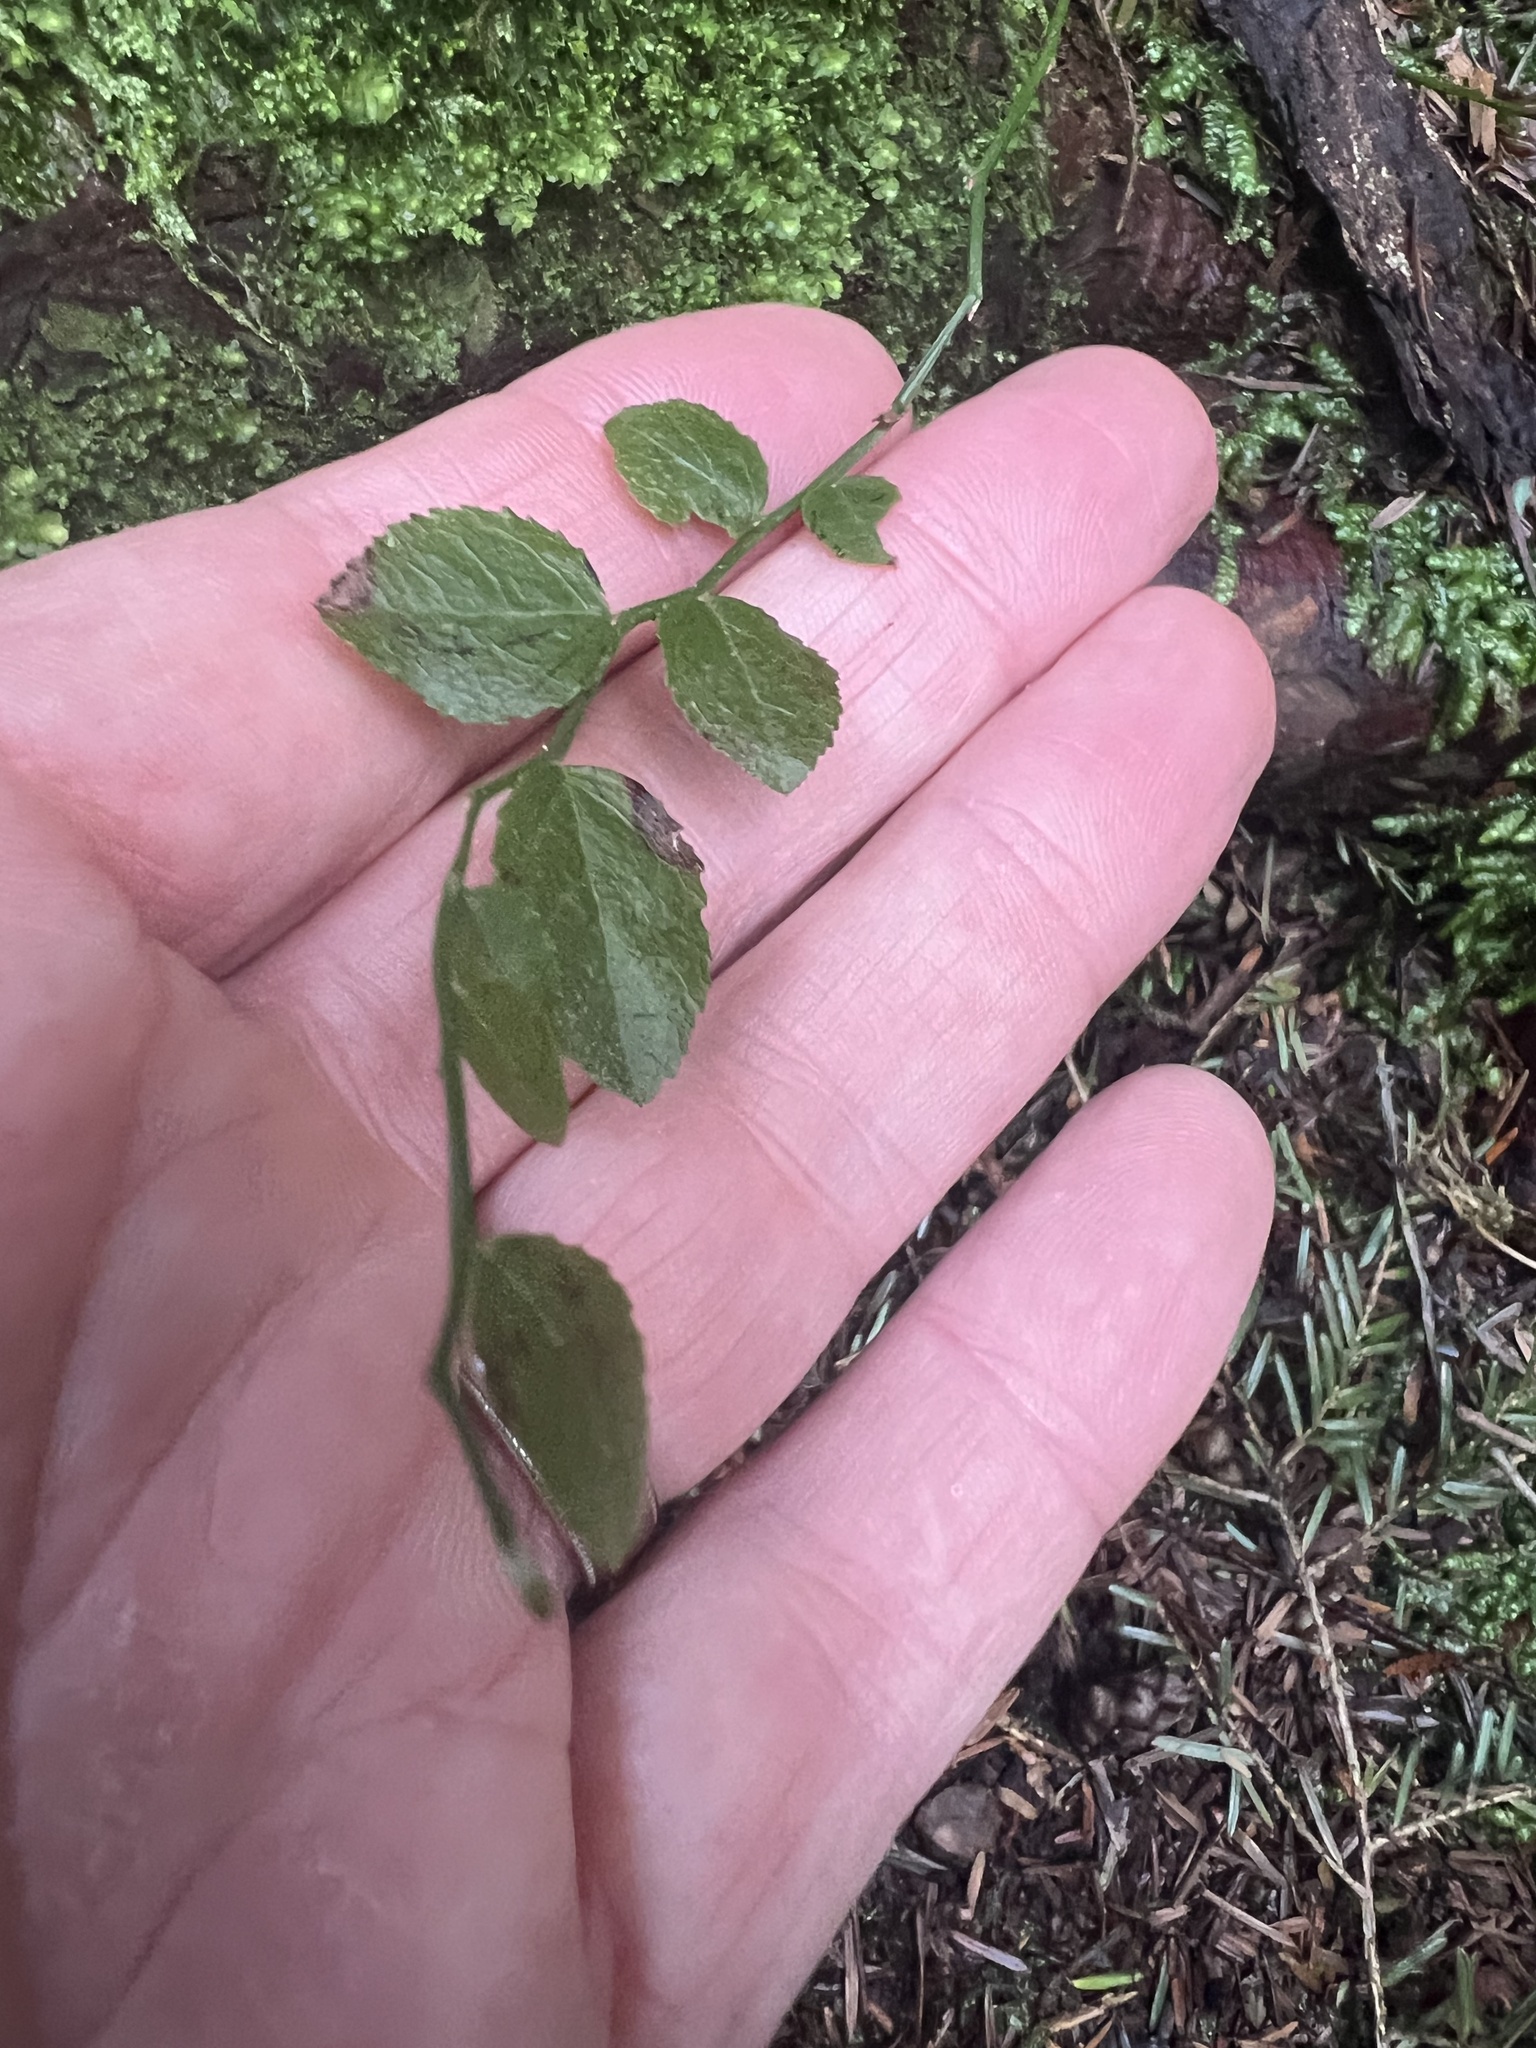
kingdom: Plantae
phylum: Tracheophyta
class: Magnoliopsida
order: Ericales
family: Ericaceae
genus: Vaccinium
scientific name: Vaccinium parvifolium
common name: Red-huckleberry
